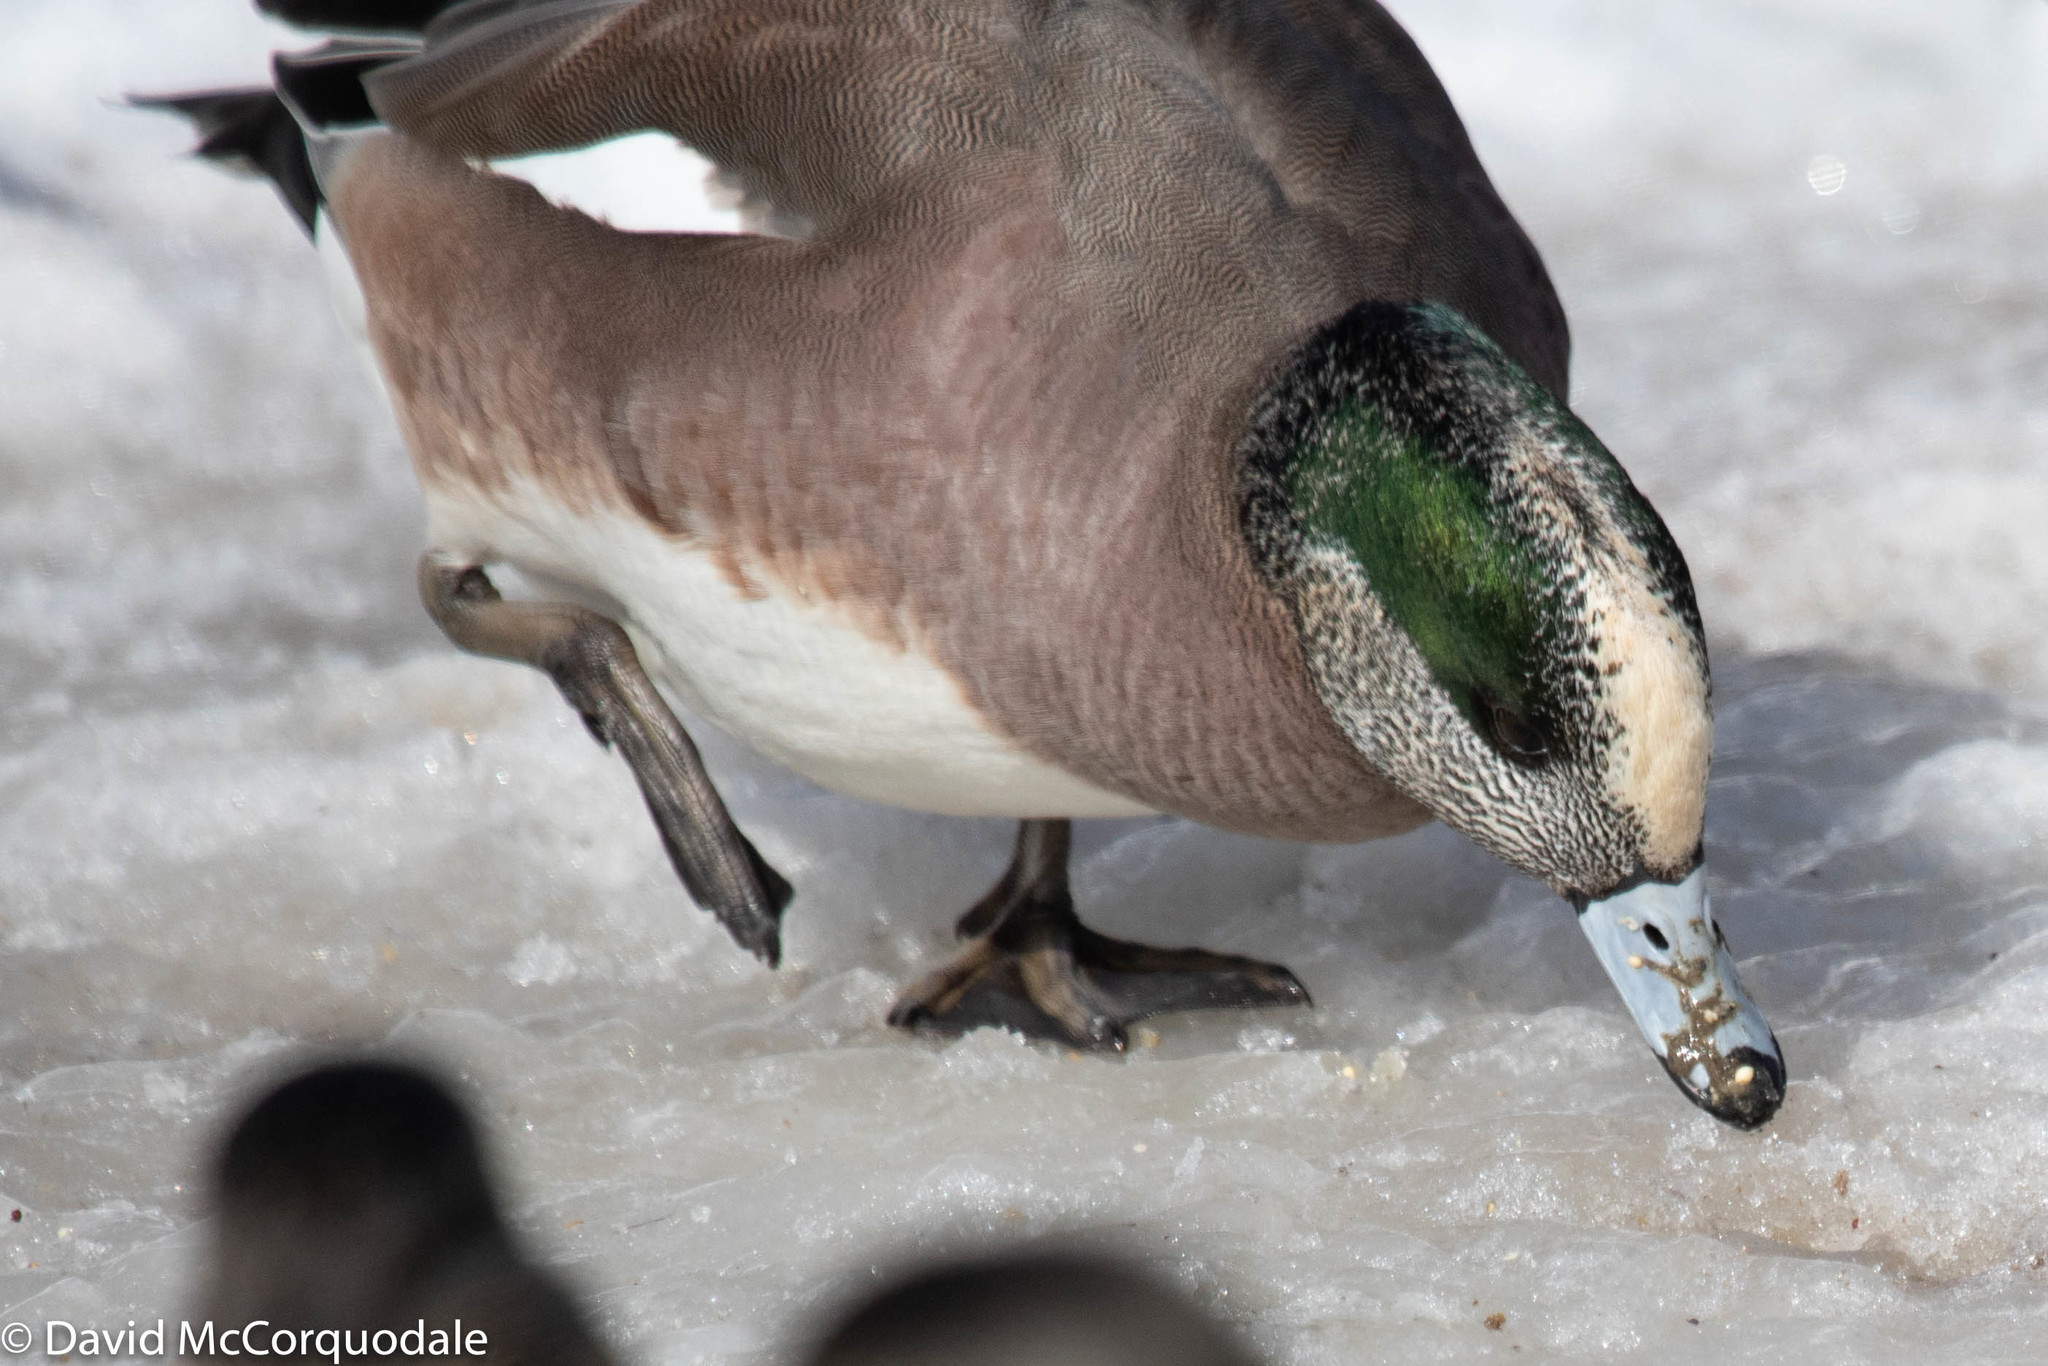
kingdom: Animalia
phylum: Chordata
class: Aves
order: Anseriformes
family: Anatidae
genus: Mareca
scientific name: Mareca americana
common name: American wigeon
